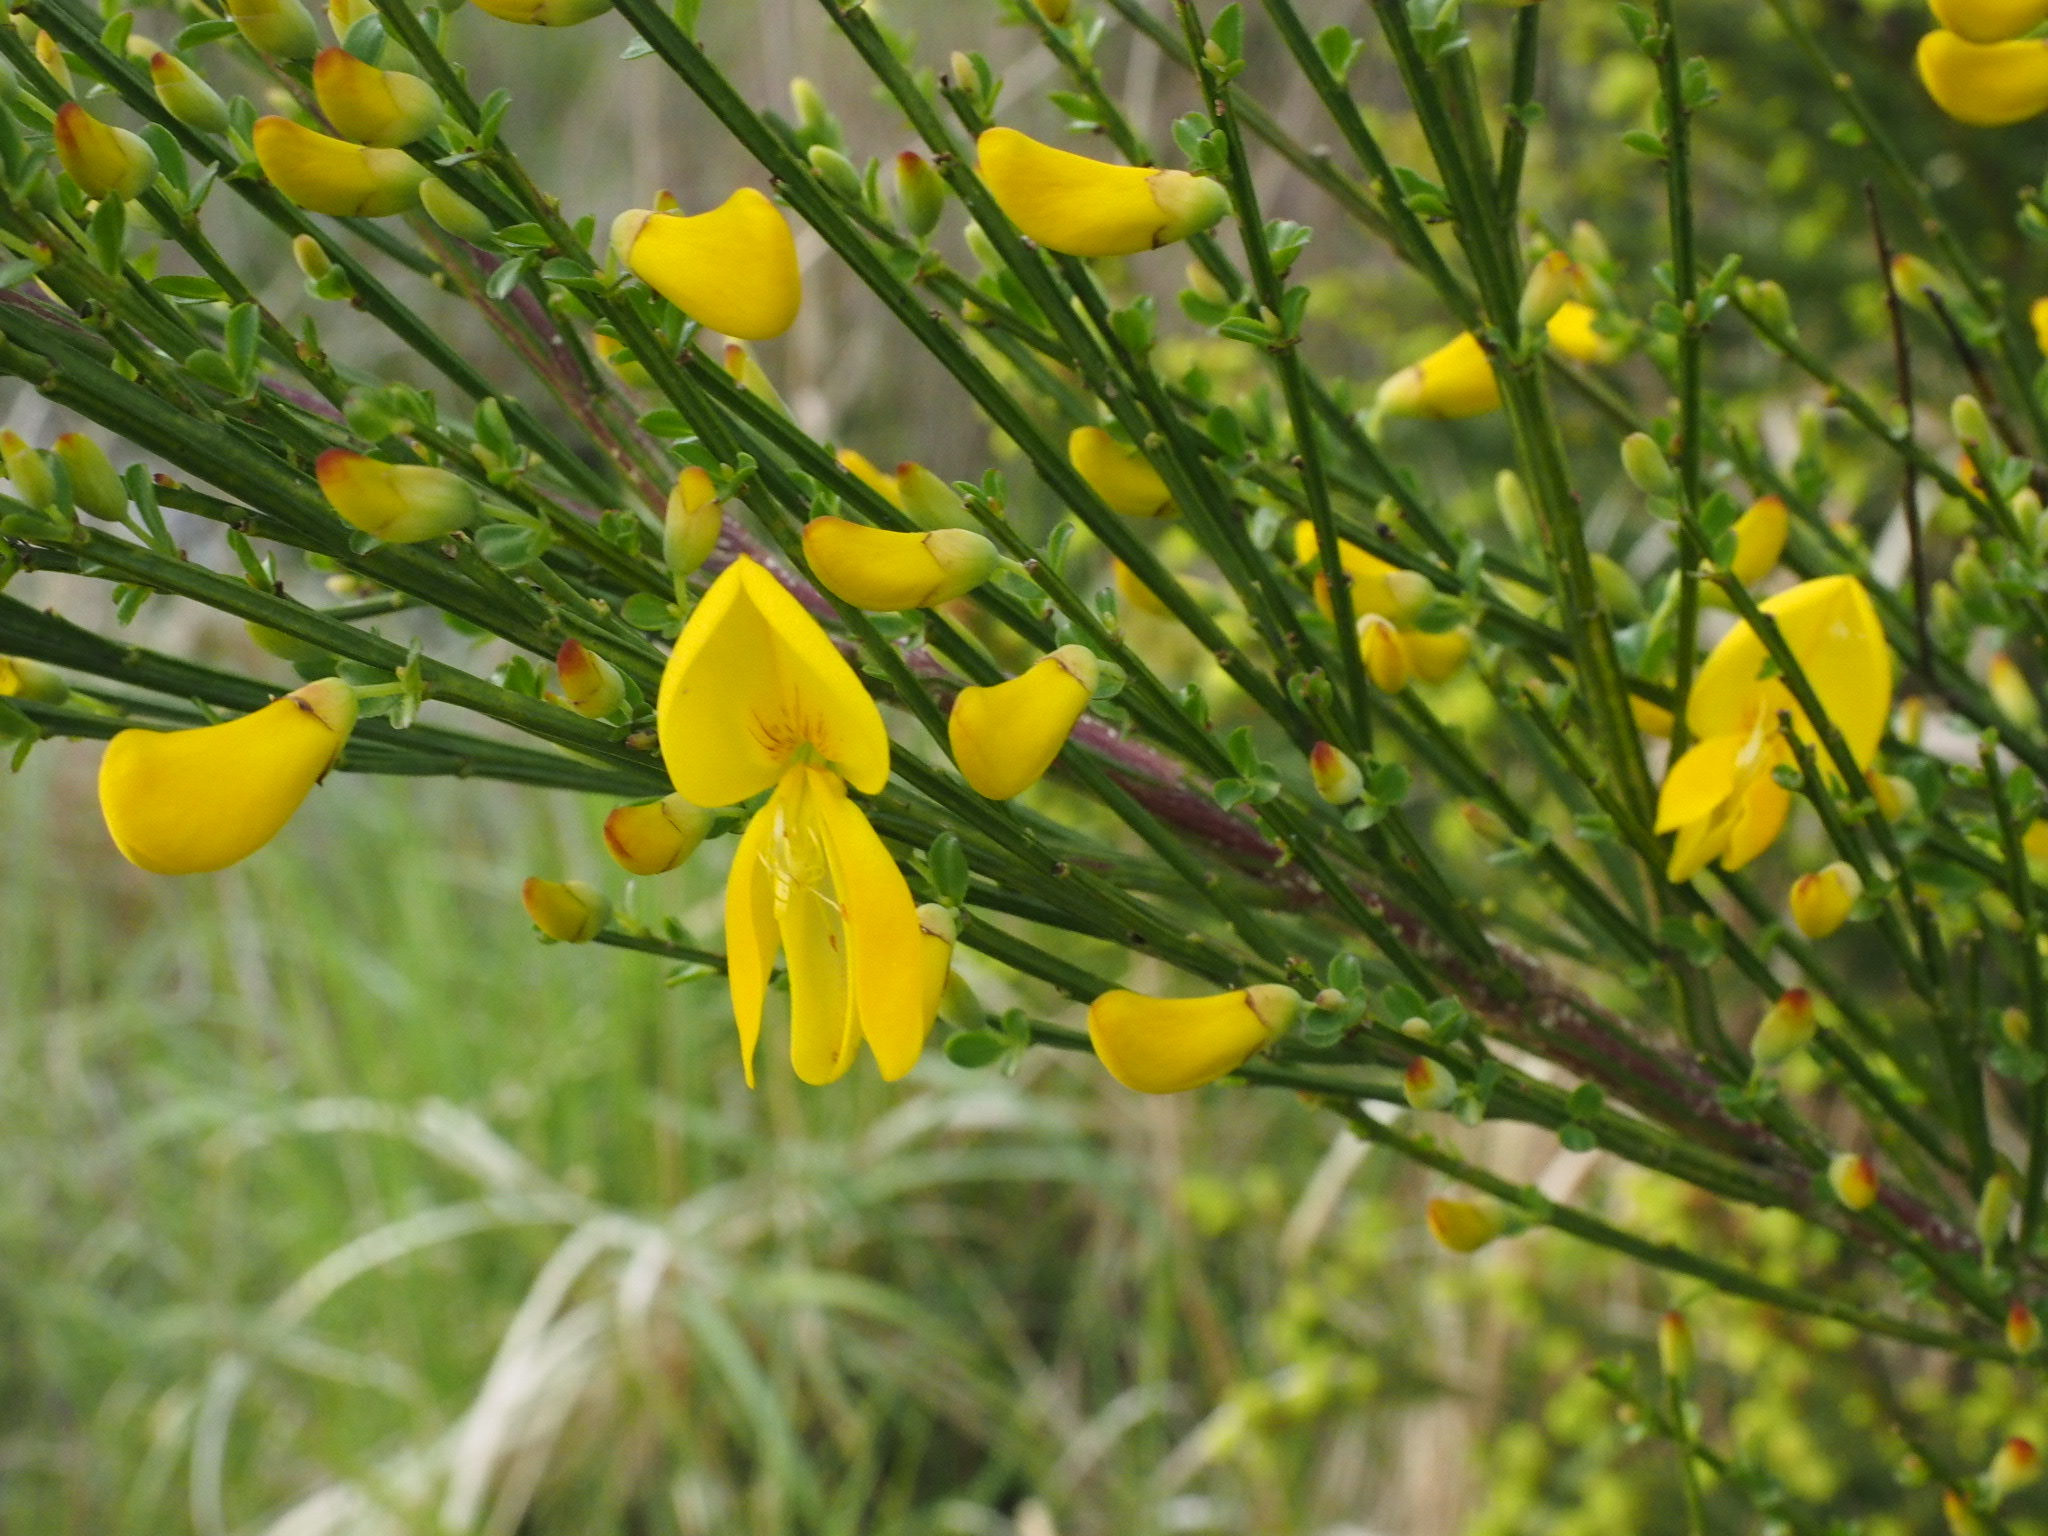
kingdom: Plantae
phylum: Tracheophyta
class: Magnoliopsida
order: Fabales
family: Fabaceae
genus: Cytisus
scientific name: Cytisus scoparius
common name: Scotch broom
